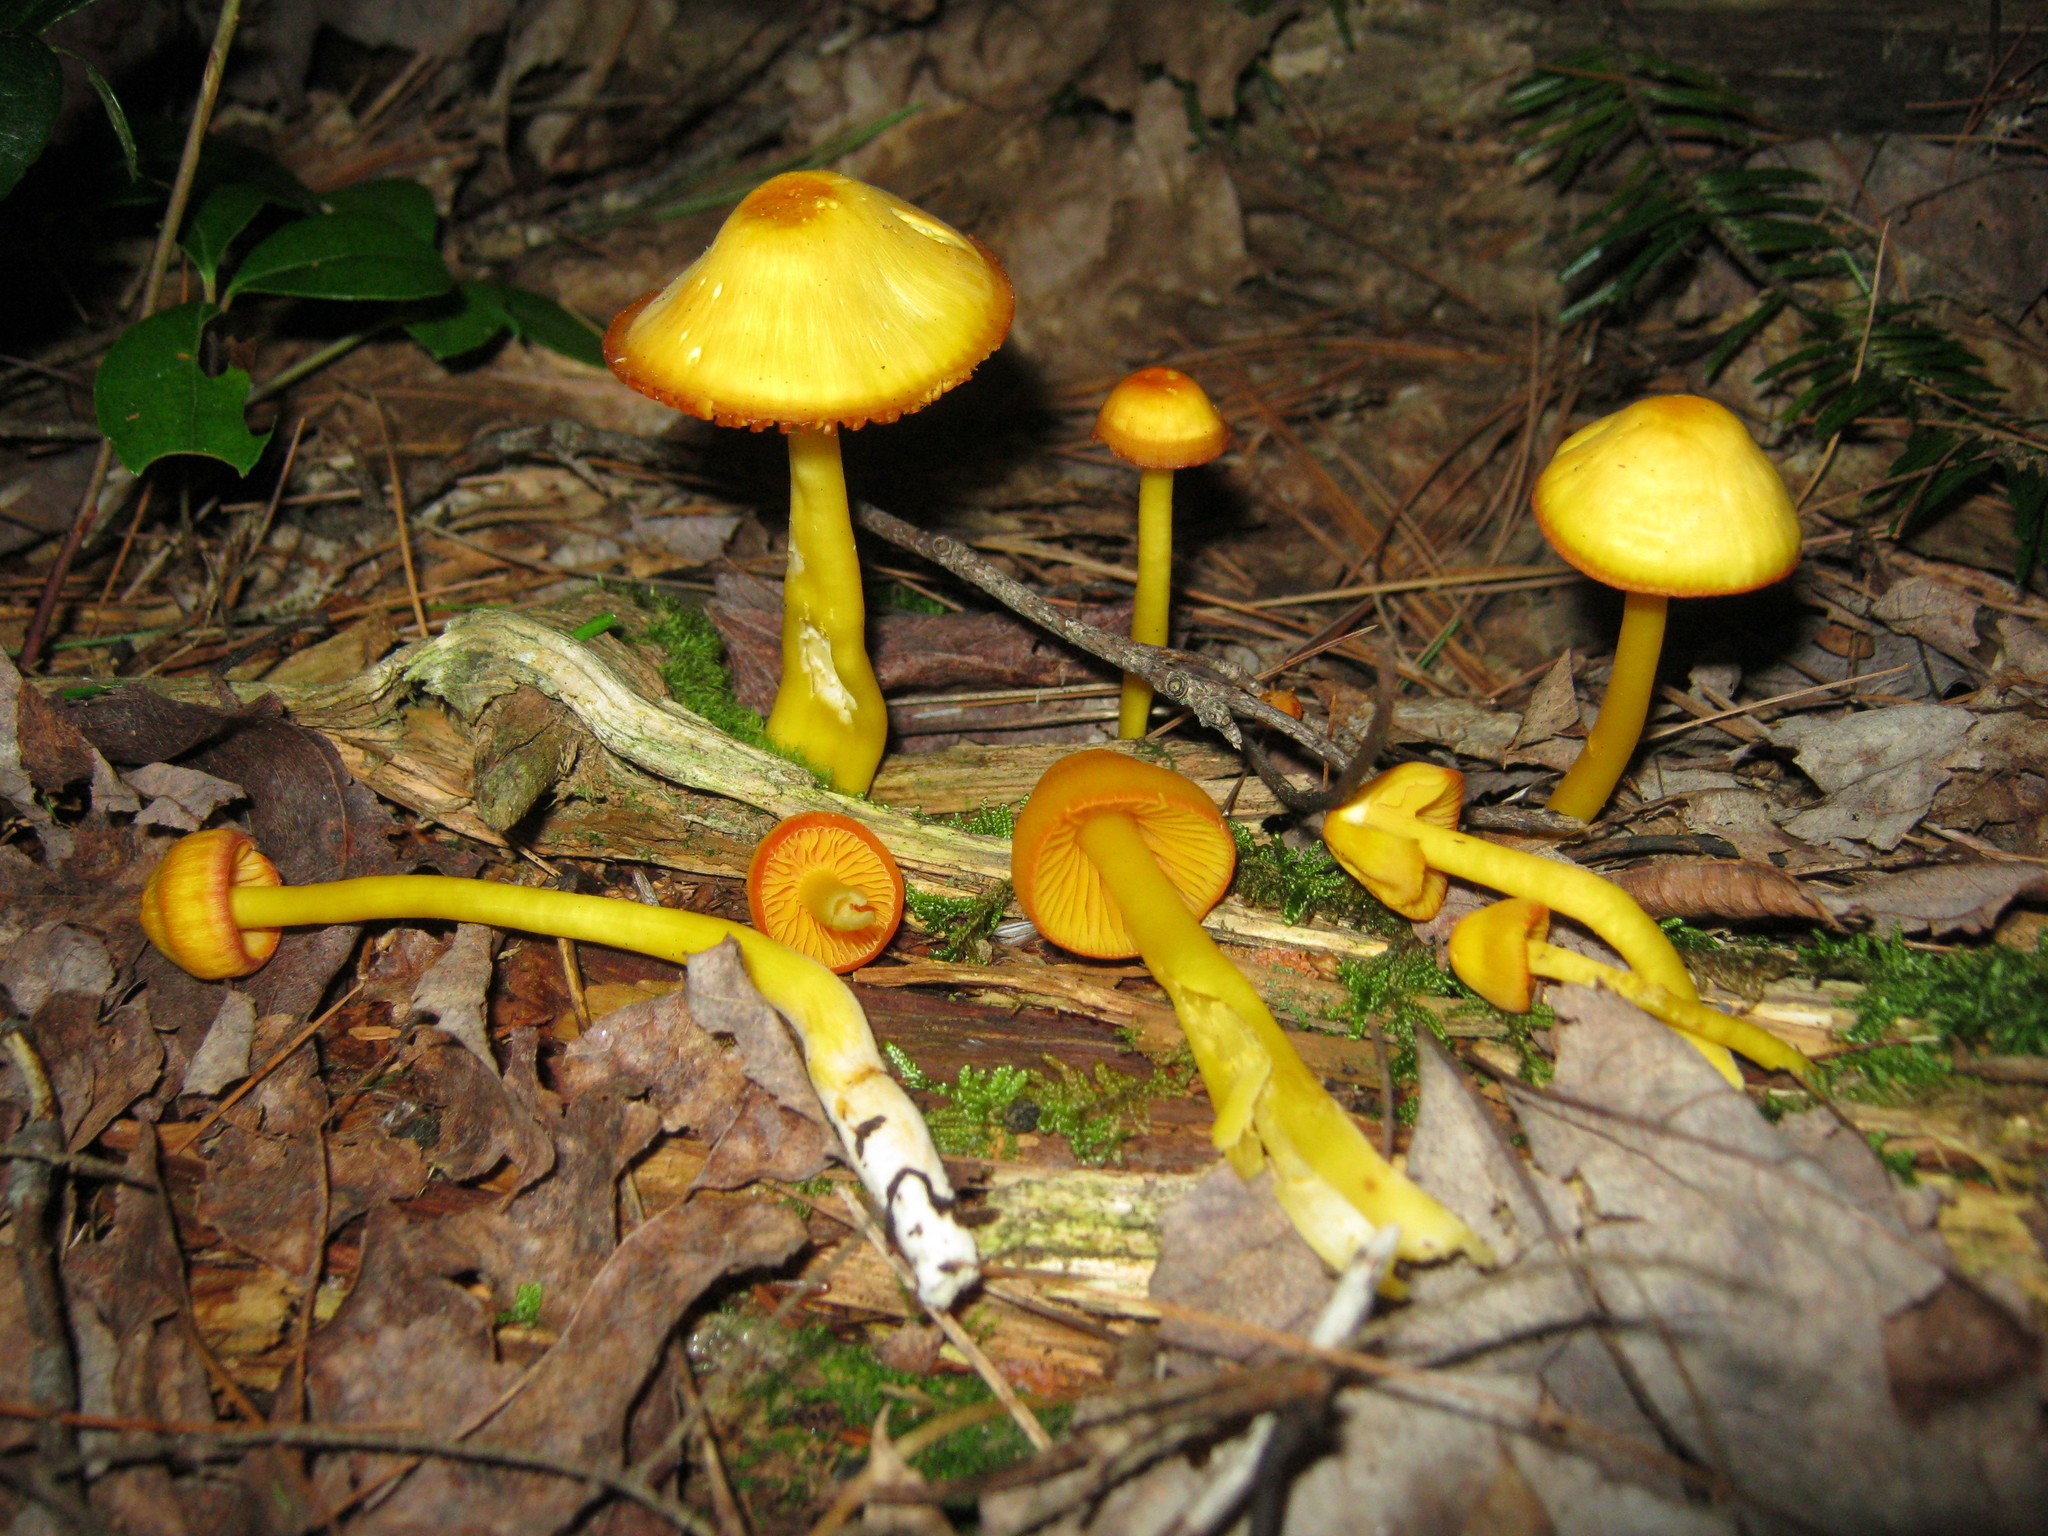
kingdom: Fungi
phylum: Basidiomycota
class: Agaricomycetes
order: Agaricales
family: Hygrophoraceae
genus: Humidicutis
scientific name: Humidicutis marginata
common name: Orange gilled waxcap
